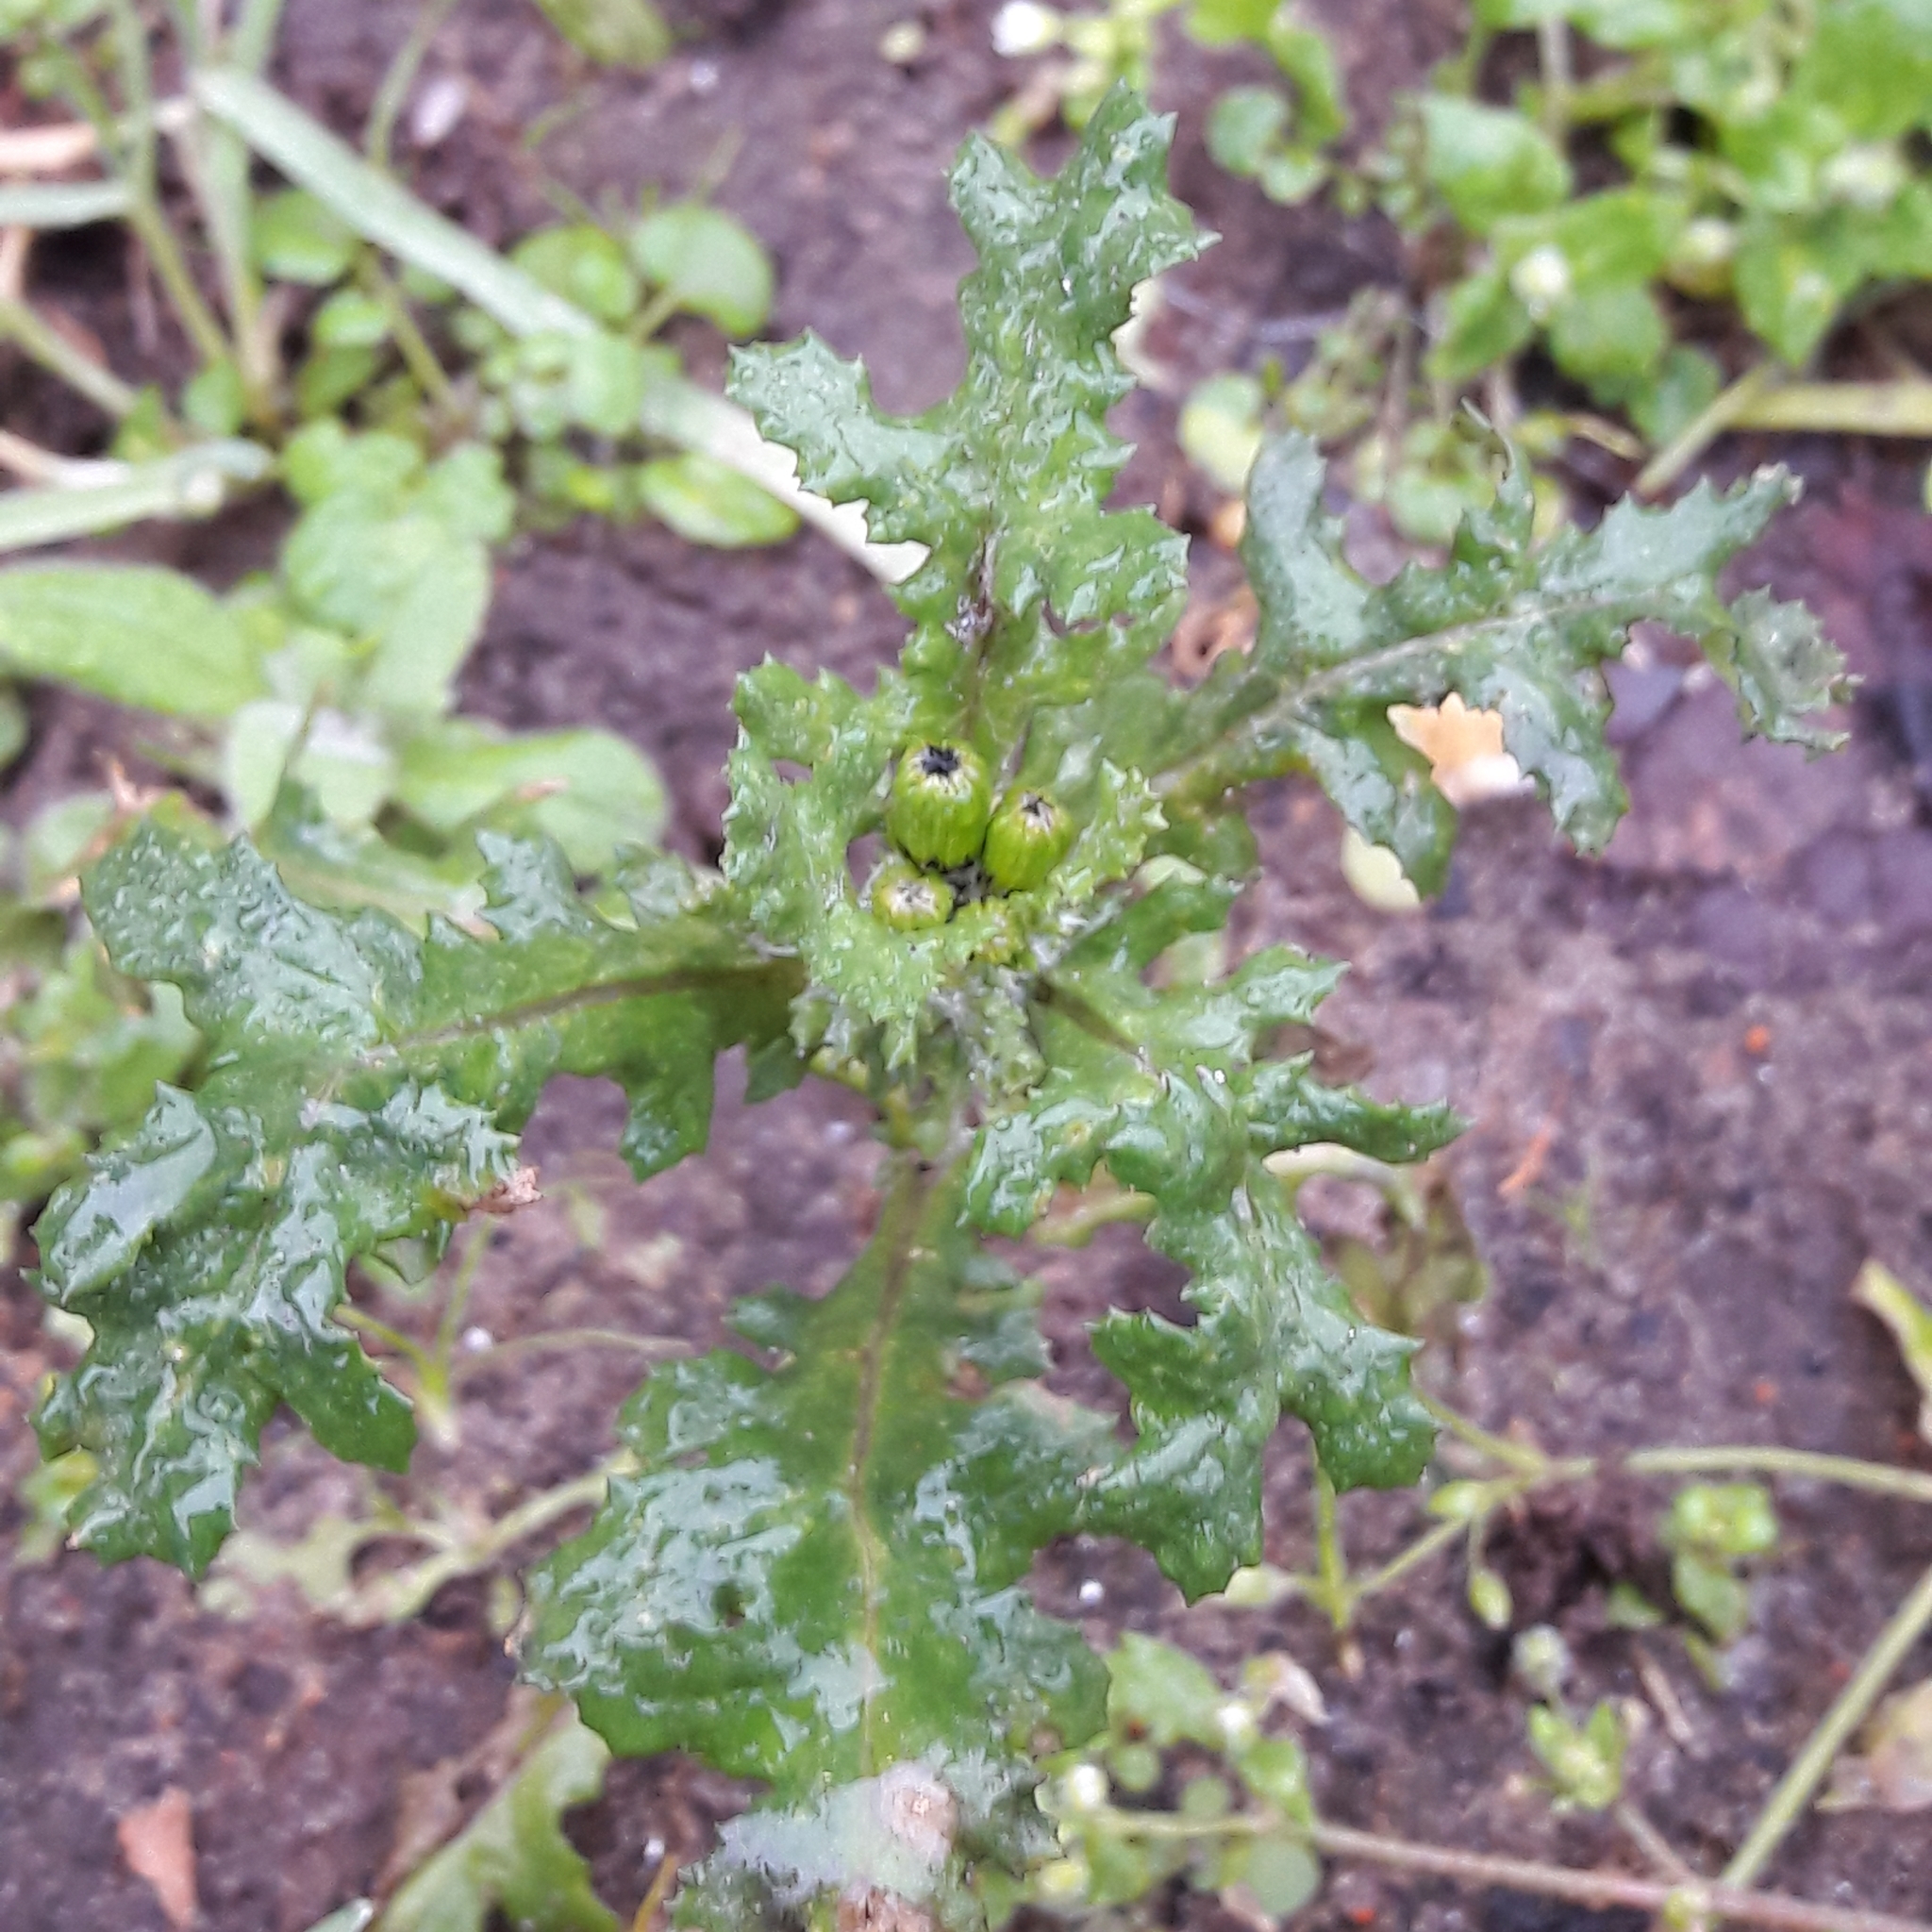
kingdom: Plantae
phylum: Tracheophyta
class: Magnoliopsida
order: Asterales
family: Asteraceae
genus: Senecio
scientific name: Senecio vulgaris
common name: Old-man-in-the-spring
